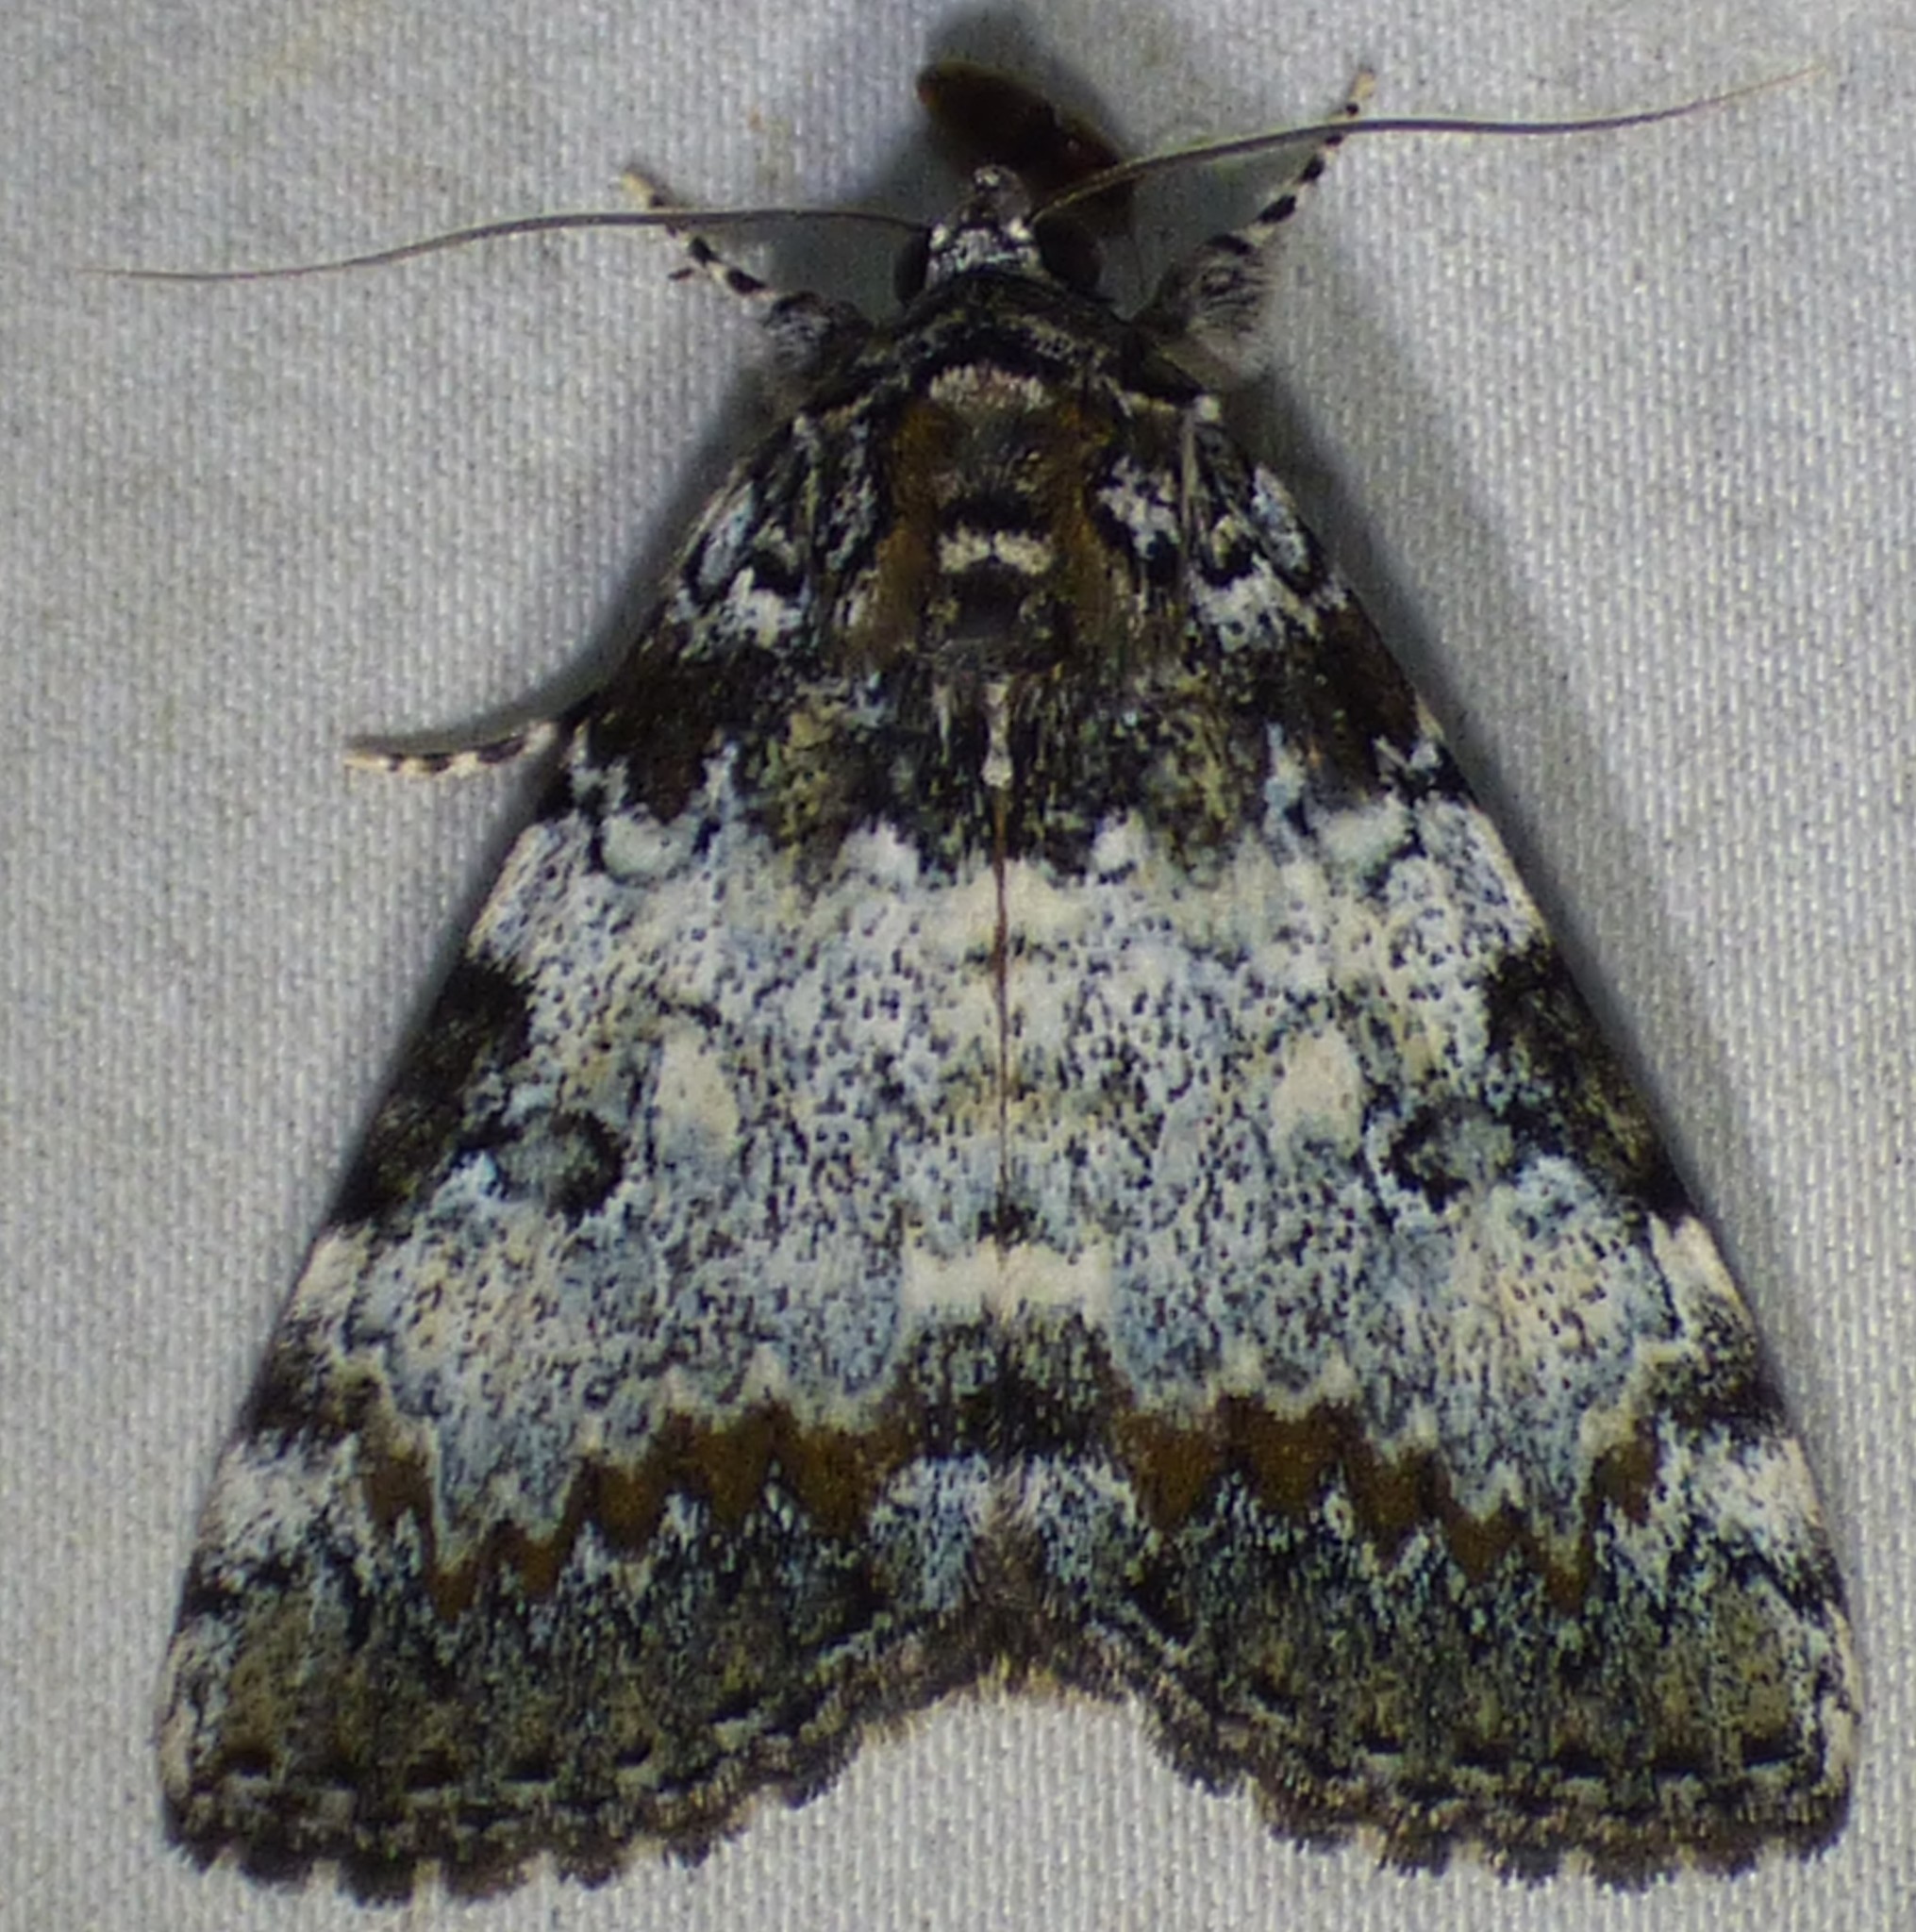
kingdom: Animalia
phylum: Arthropoda
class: Insecta
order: Lepidoptera
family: Erebidae
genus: Catocala
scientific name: Catocala connubialis
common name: Connubial underwing
